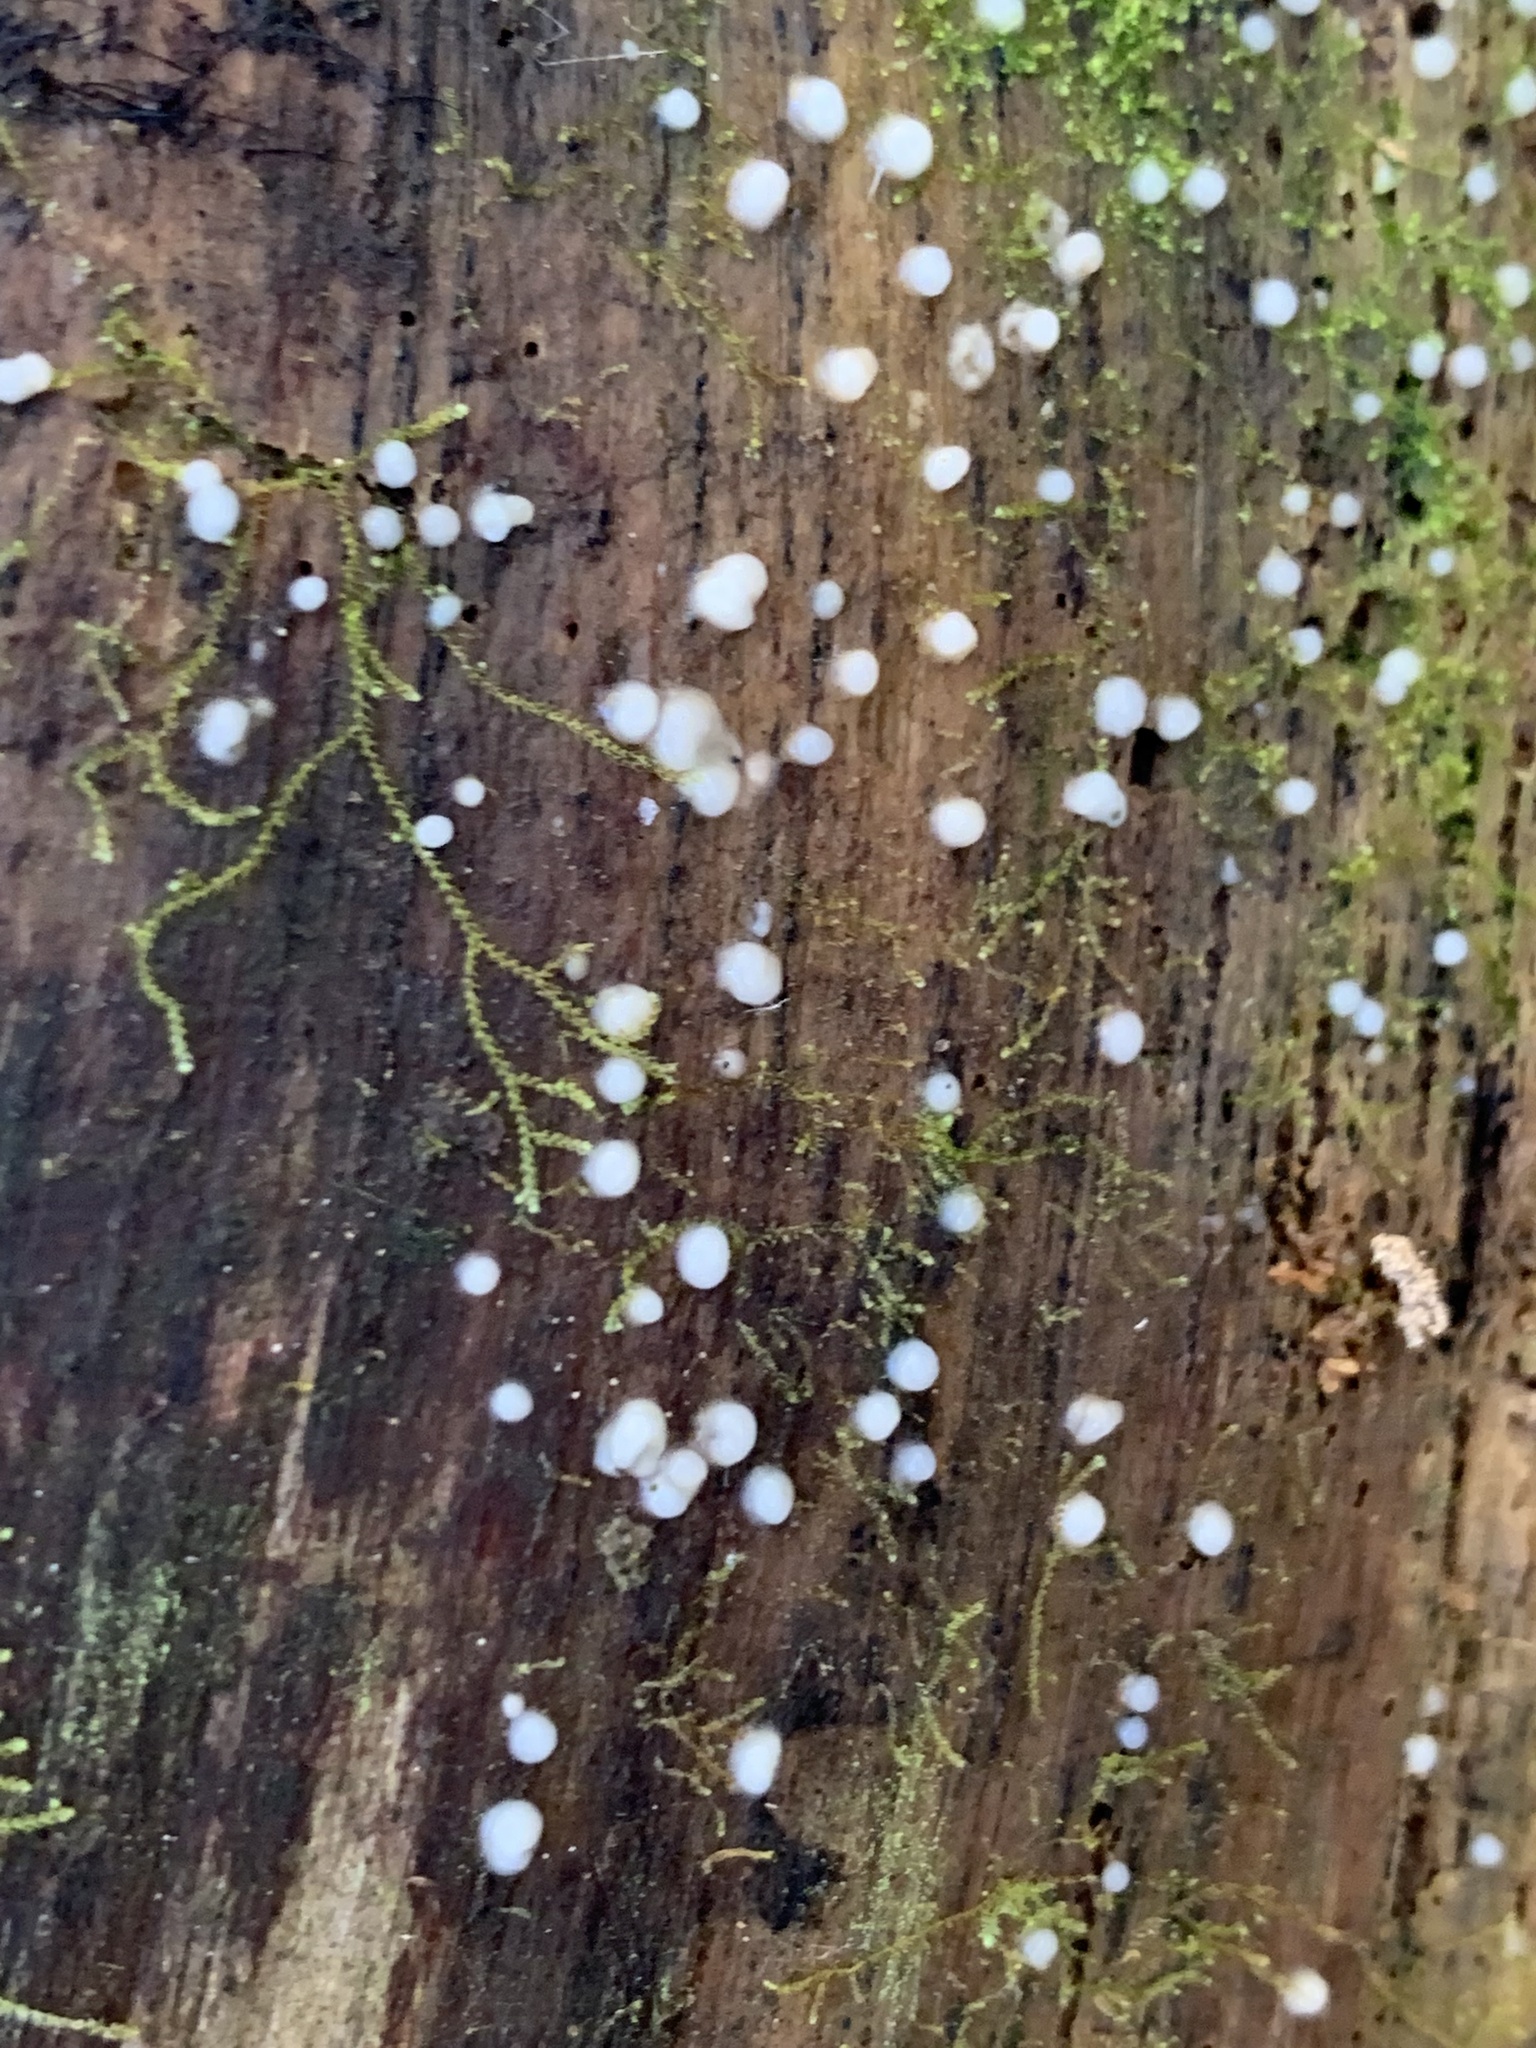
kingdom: Fungi
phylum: Basidiomycota
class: Atractiellomycetes
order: Atractiellales
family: Phleogenaceae
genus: Helicogloea
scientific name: Helicogloea compressa
